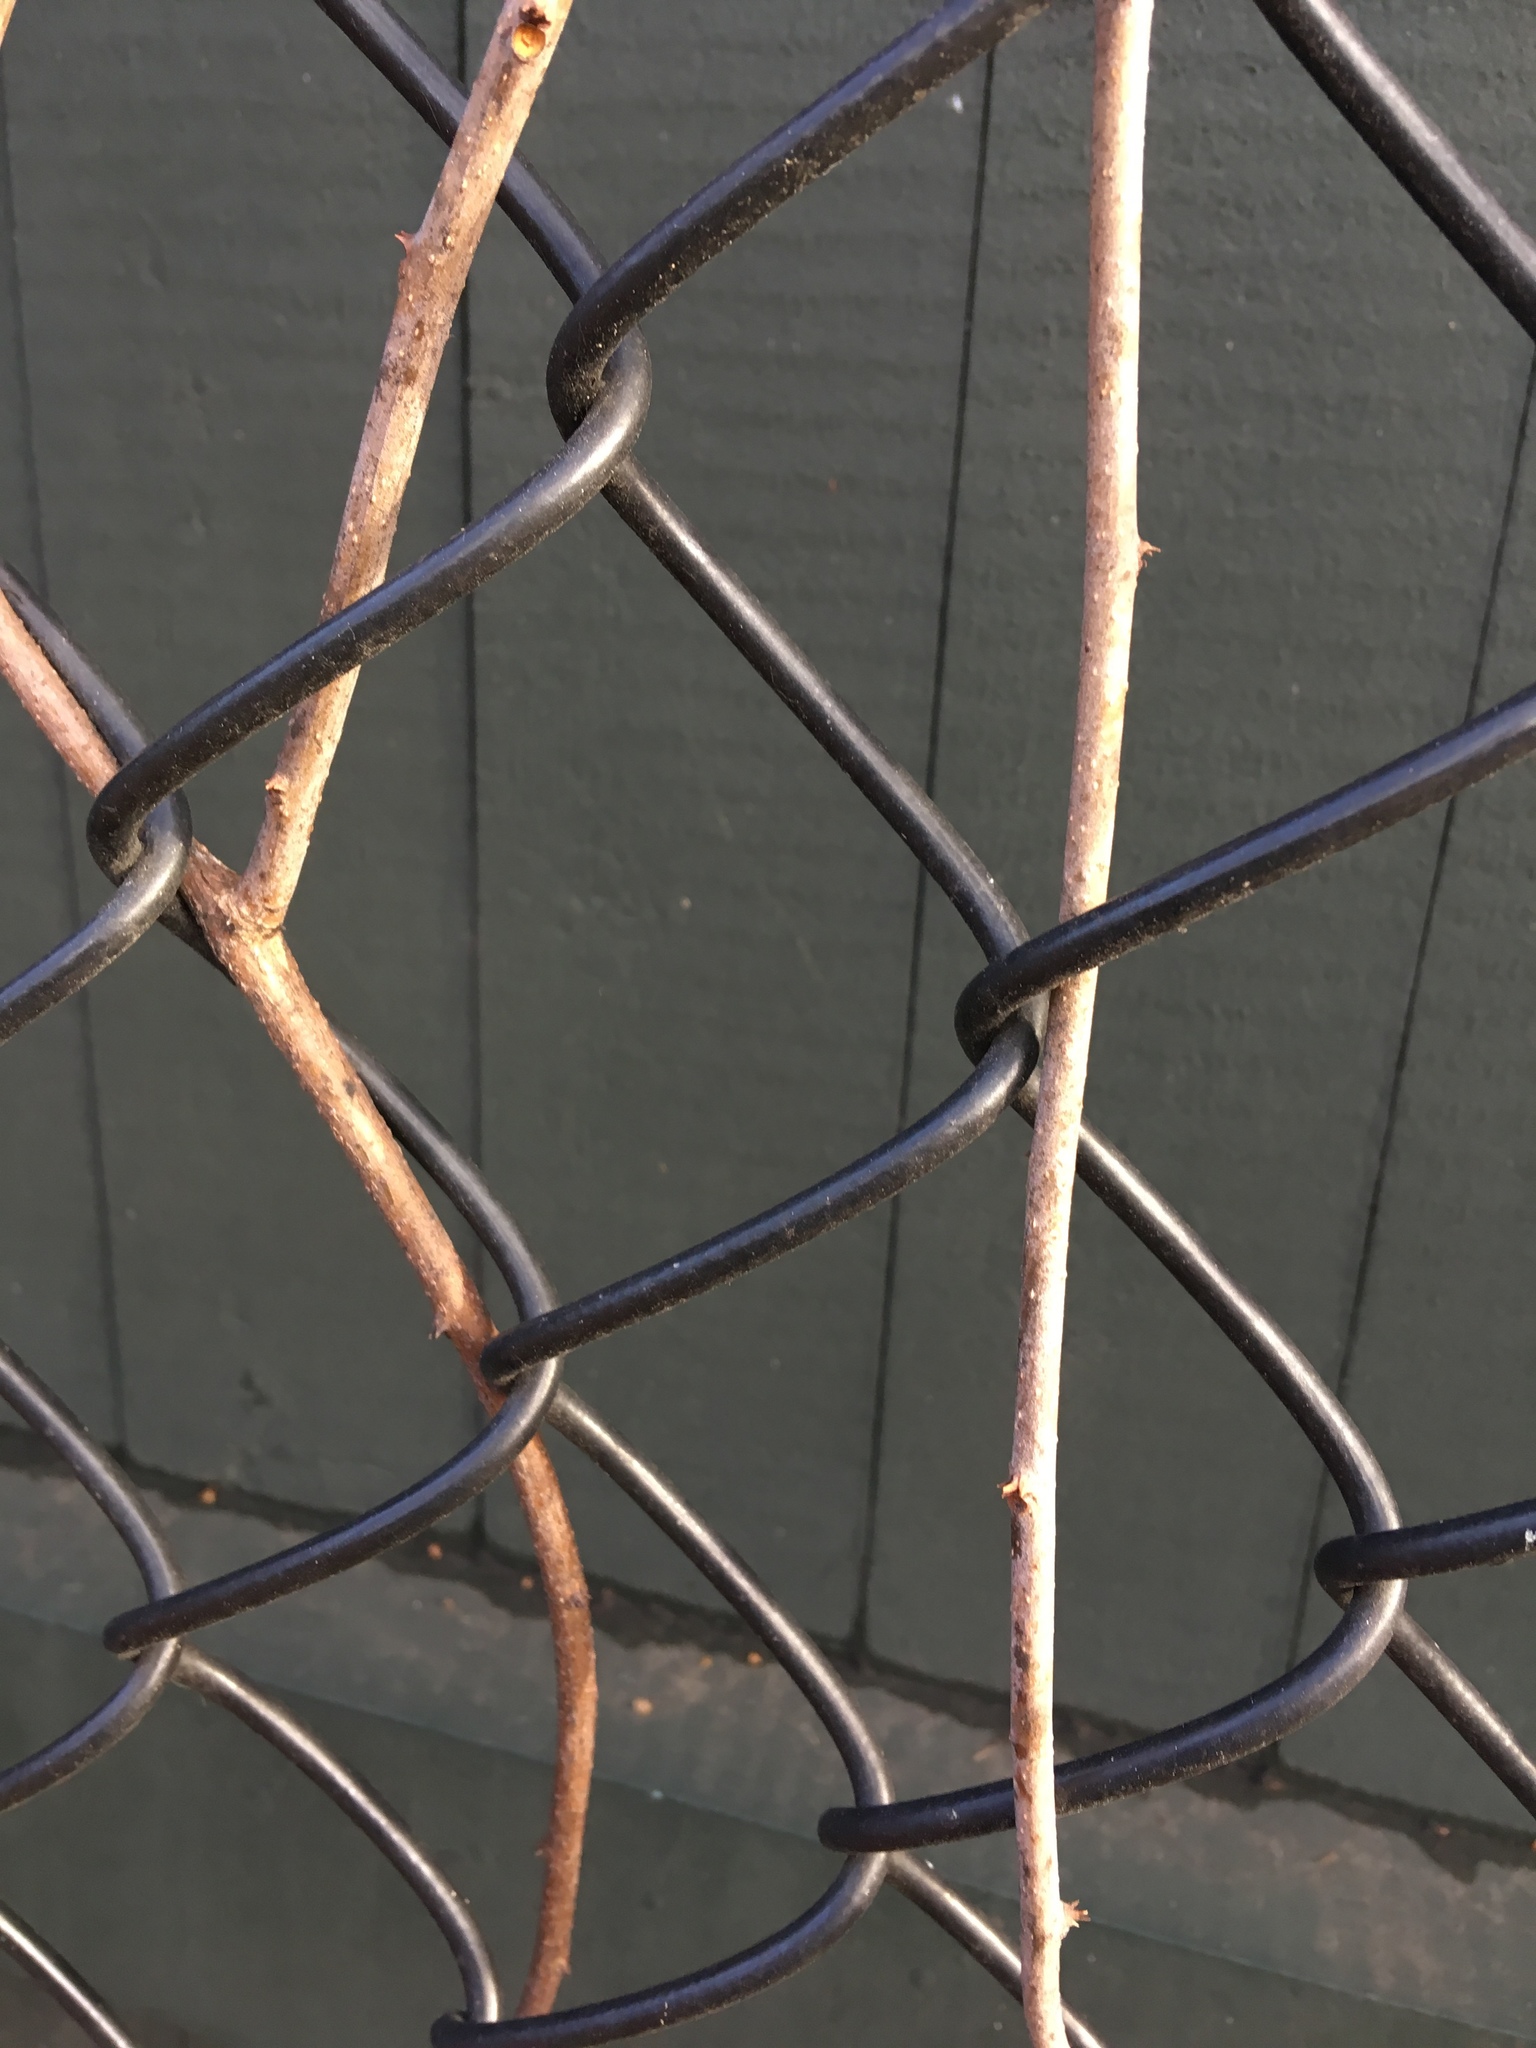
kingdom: Plantae
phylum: Tracheophyta
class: Magnoliopsida
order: Celastrales
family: Celastraceae
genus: Celastrus
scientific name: Celastrus orbiculatus
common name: Oriental bittersweet
